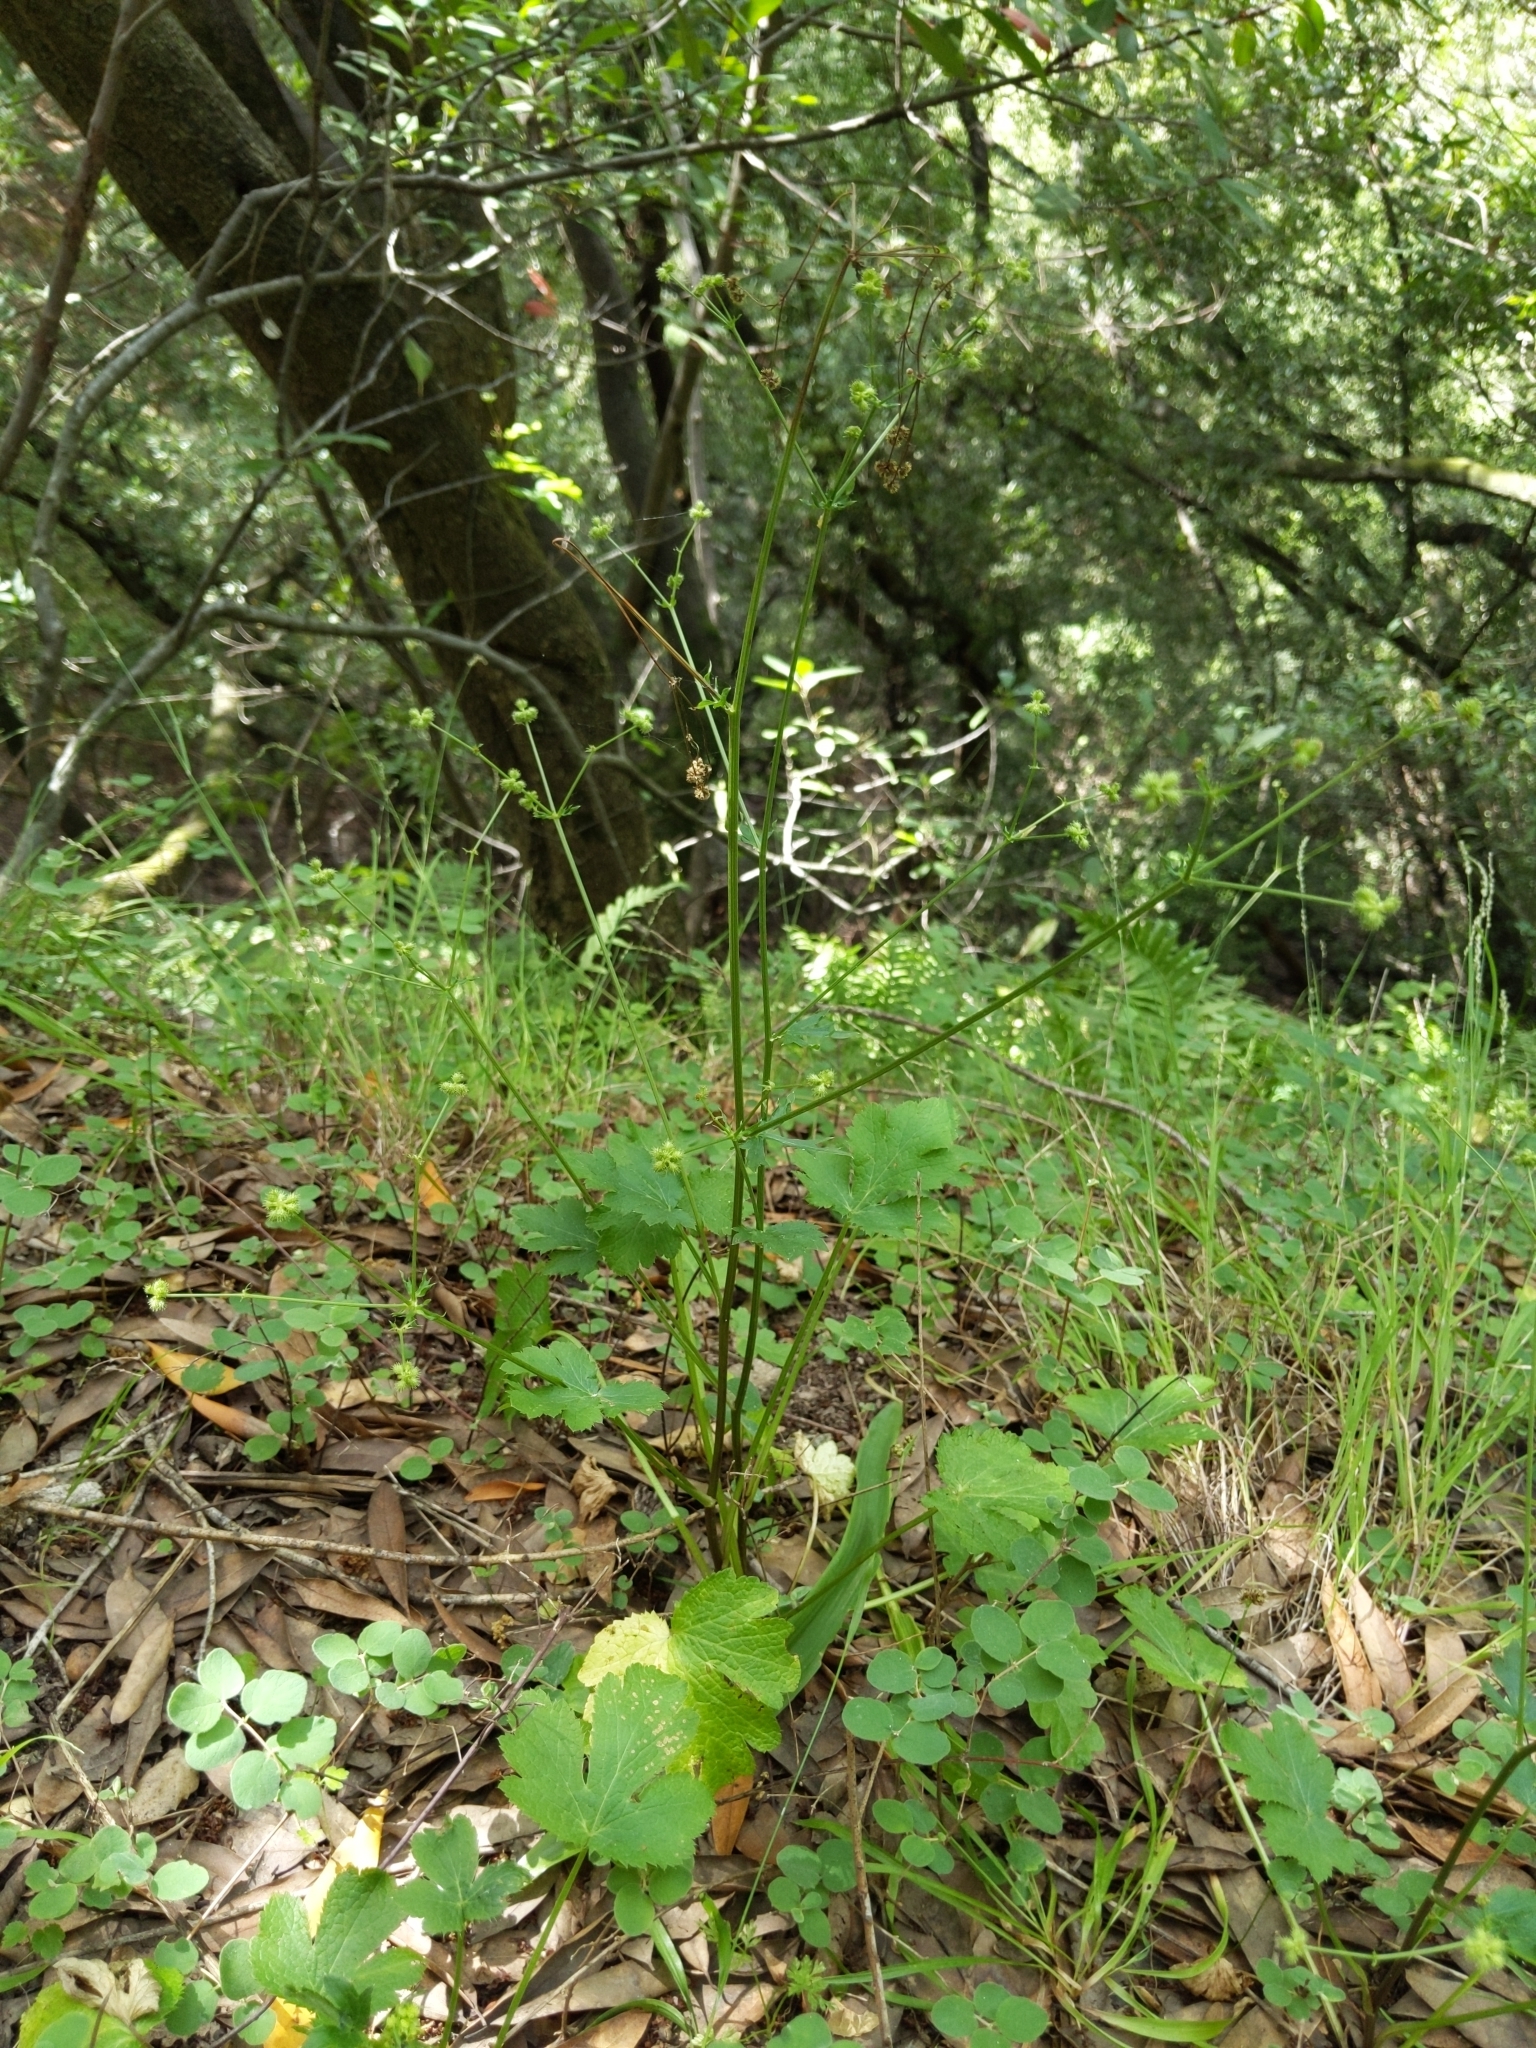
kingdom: Plantae
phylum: Tracheophyta
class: Magnoliopsida
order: Apiales
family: Apiaceae
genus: Sanicula
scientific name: Sanicula crassicaulis
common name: Western snakeroot
